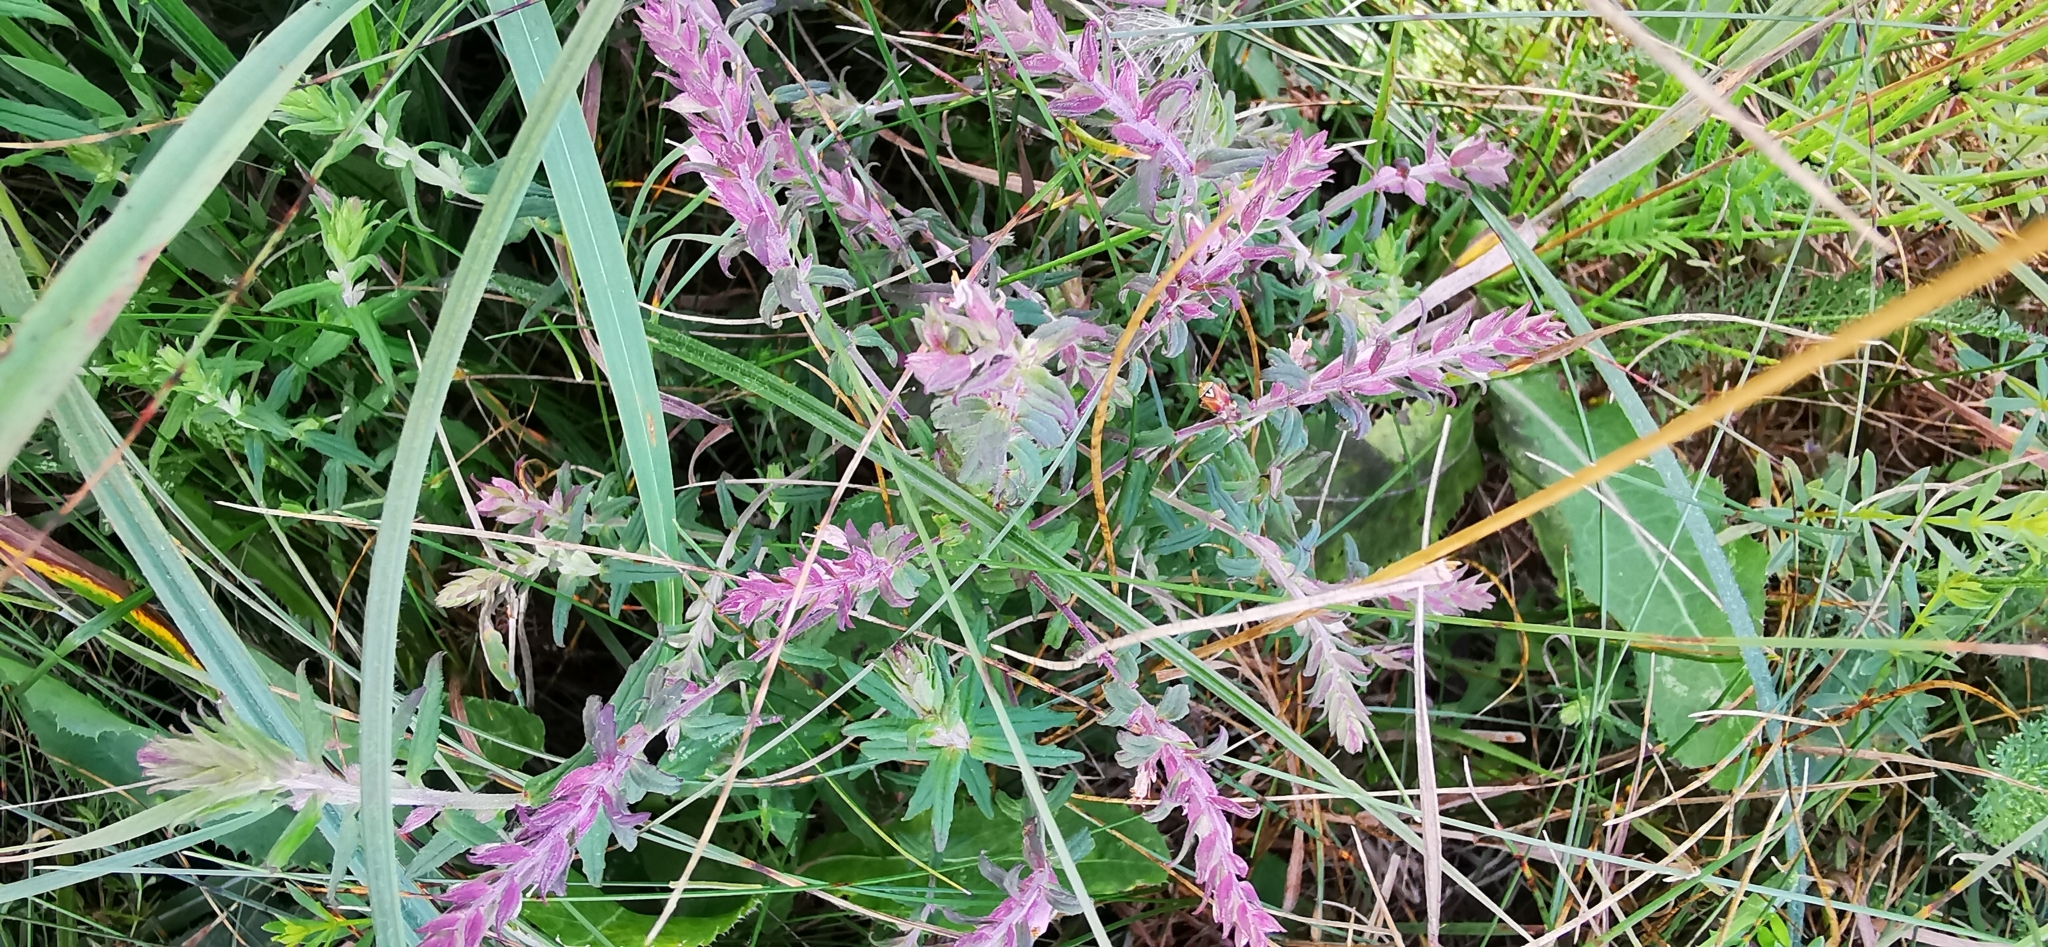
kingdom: Plantae
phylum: Tracheophyta
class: Magnoliopsida
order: Lamiales
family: Orobanchaceae
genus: Odontites
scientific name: Odontites vulgaris
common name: Broomrape
